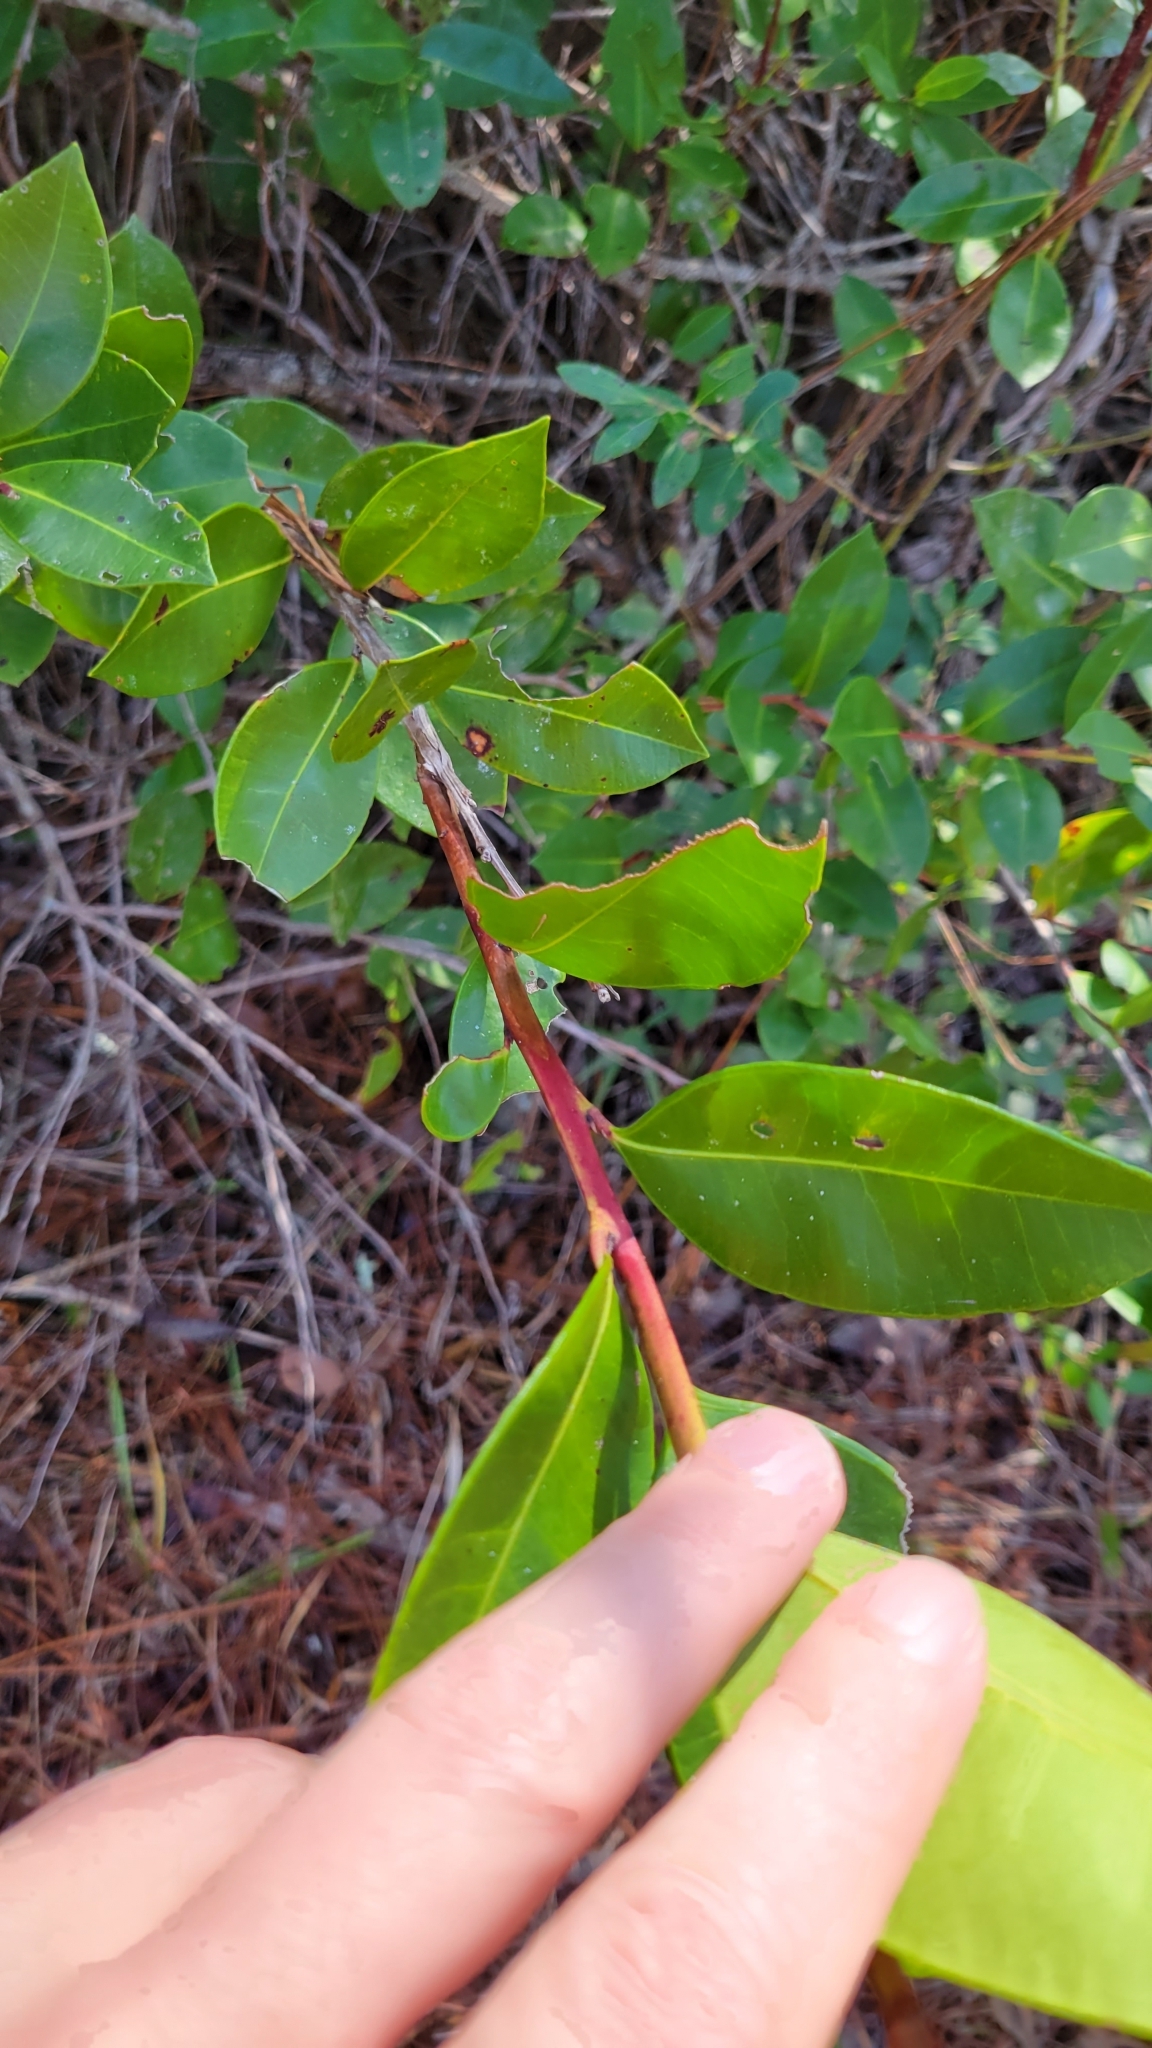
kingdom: Plantae
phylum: Tracheophyta
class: Magnoliopsida
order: Ericales
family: Ericaceae
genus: Lyonia
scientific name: Lyonia lucida
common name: Fetterbush
